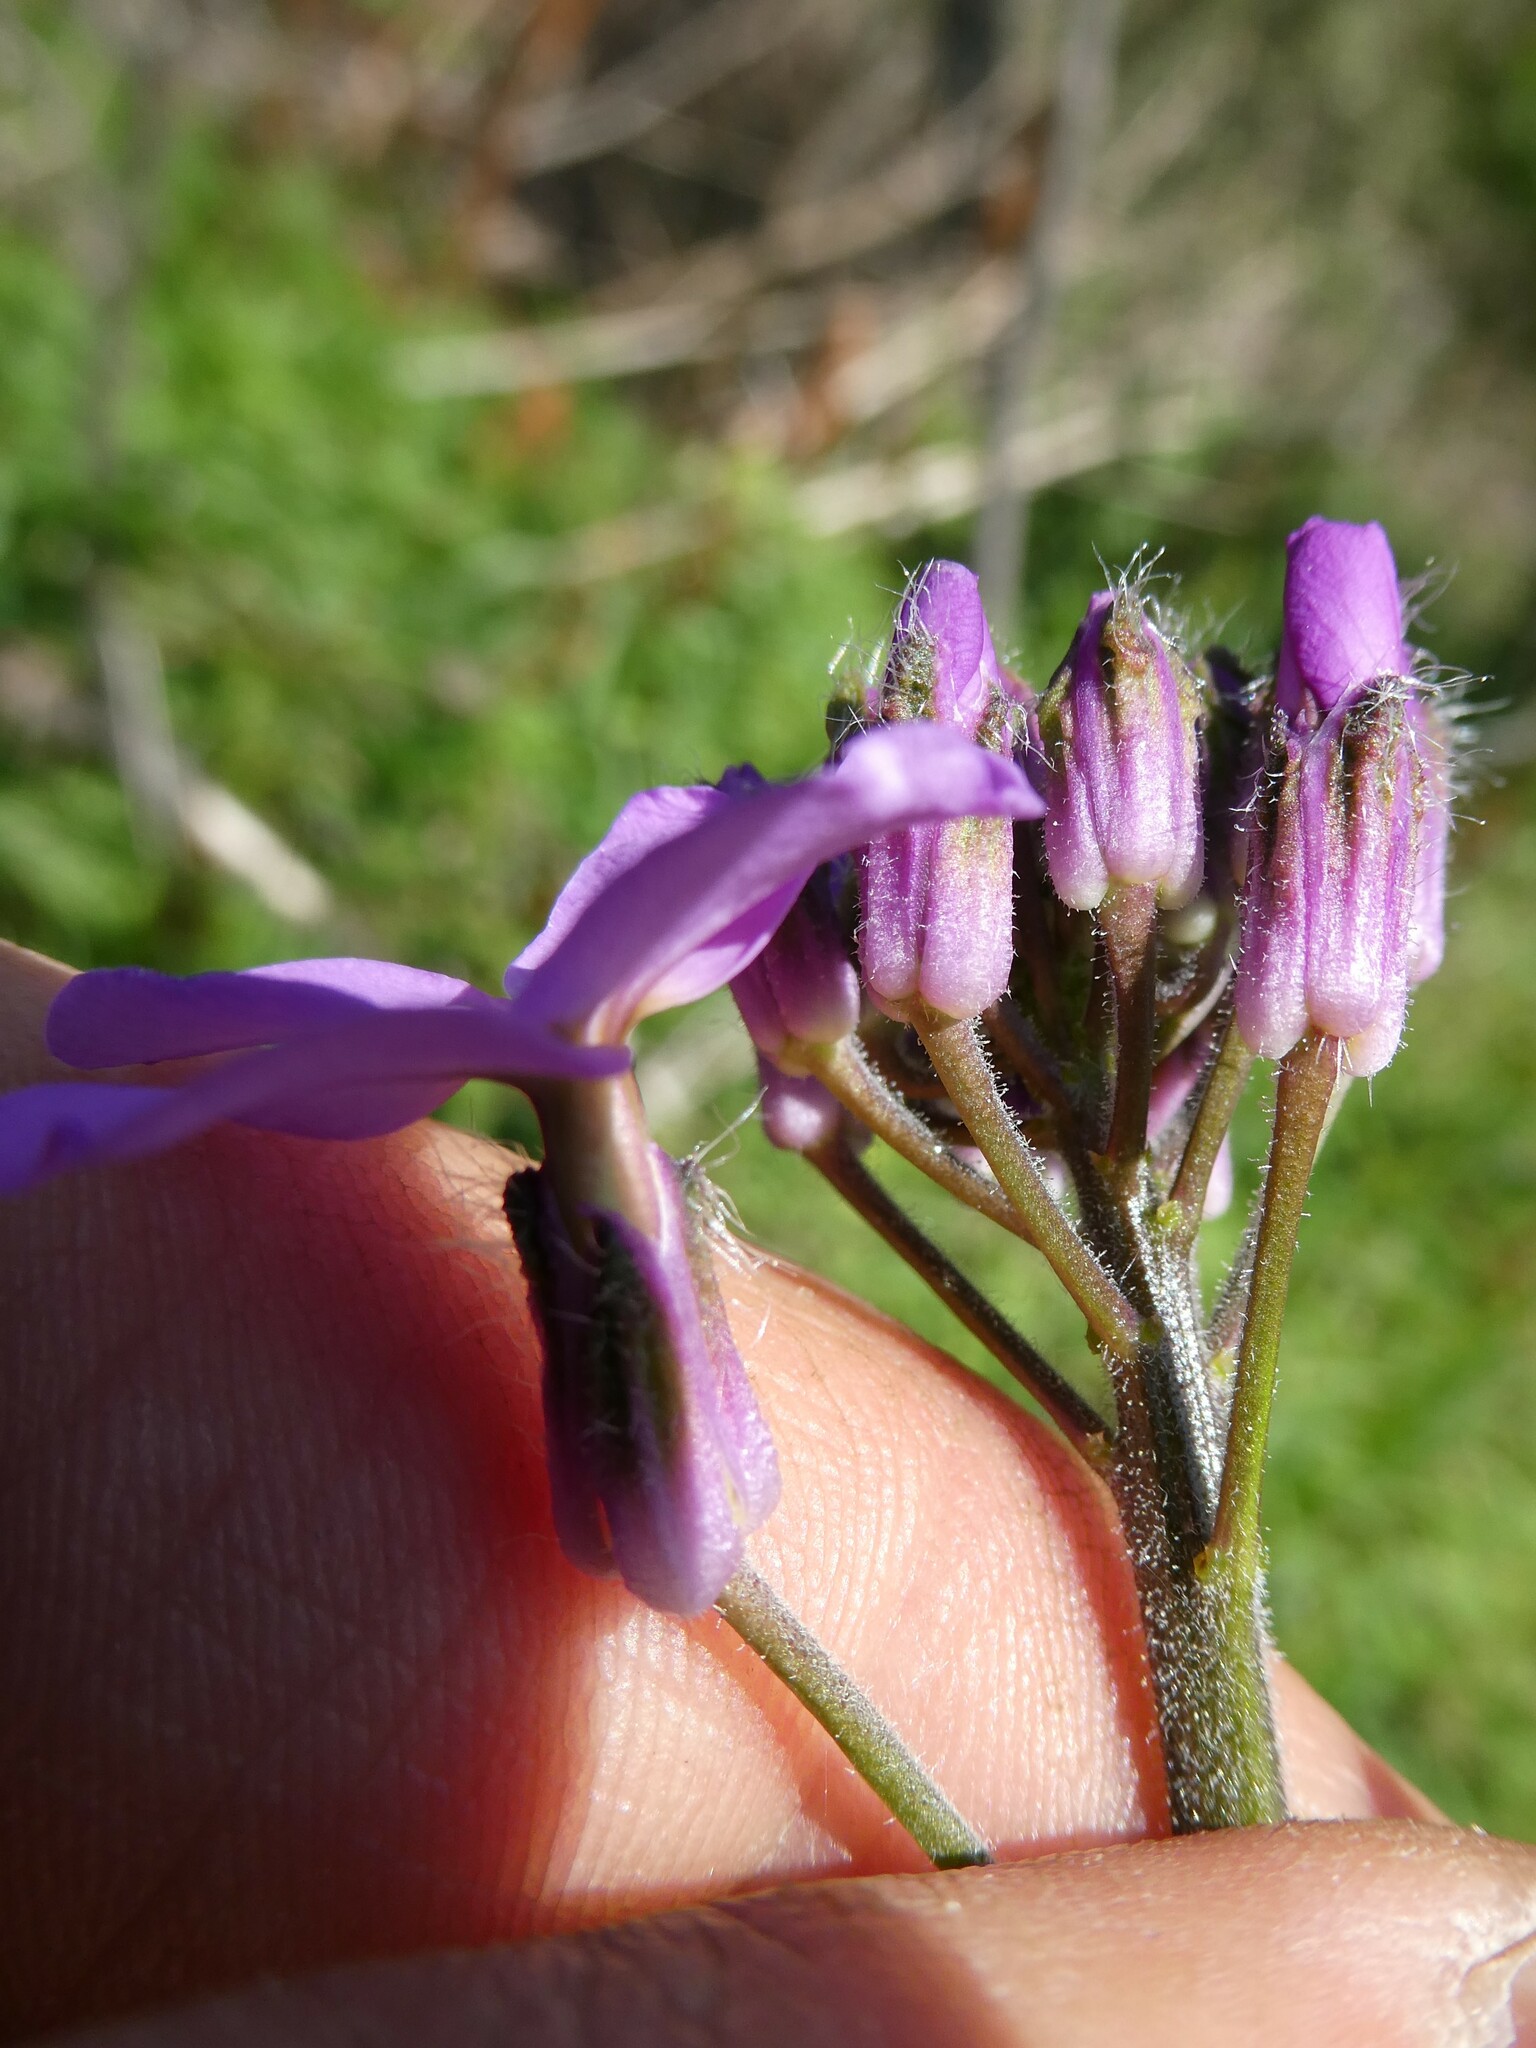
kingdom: Plantae
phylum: Tracheophyta
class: Magnoliopsida
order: Brassicales
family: Brassicaceae
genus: Hesperis
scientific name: Hesperis matronalis
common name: Dame's-violet
